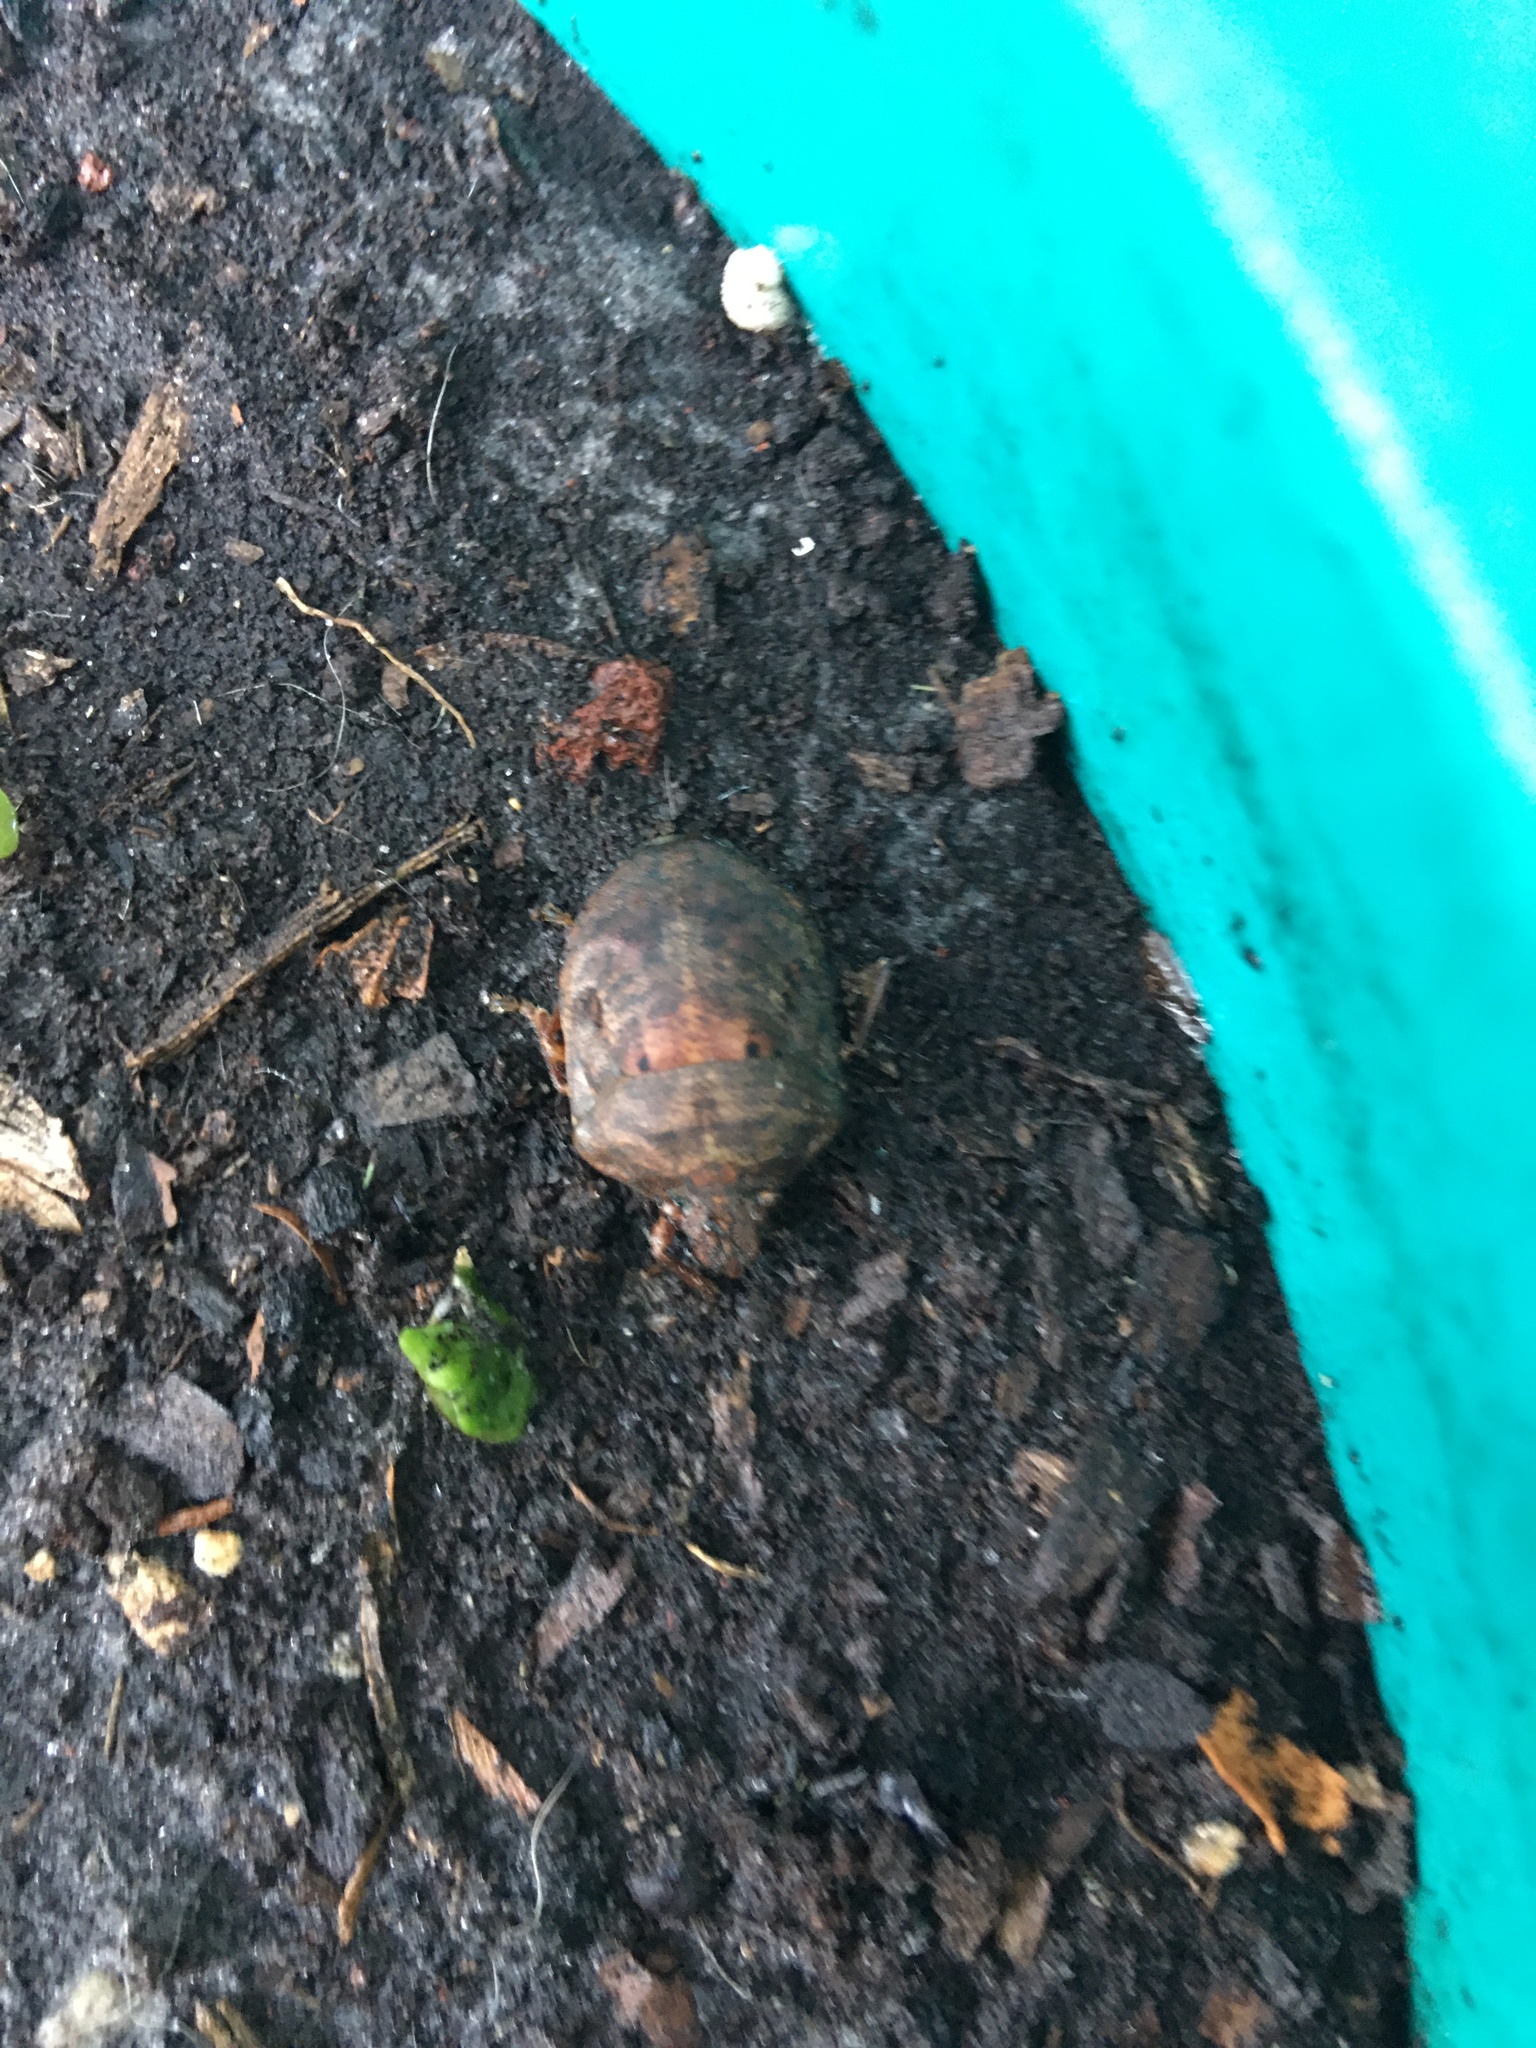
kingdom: Animalia
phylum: Arthropoda
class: Insecta
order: Hemiptera
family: Scutelleridae
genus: Tetyra
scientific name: Tetyra bipunctata
